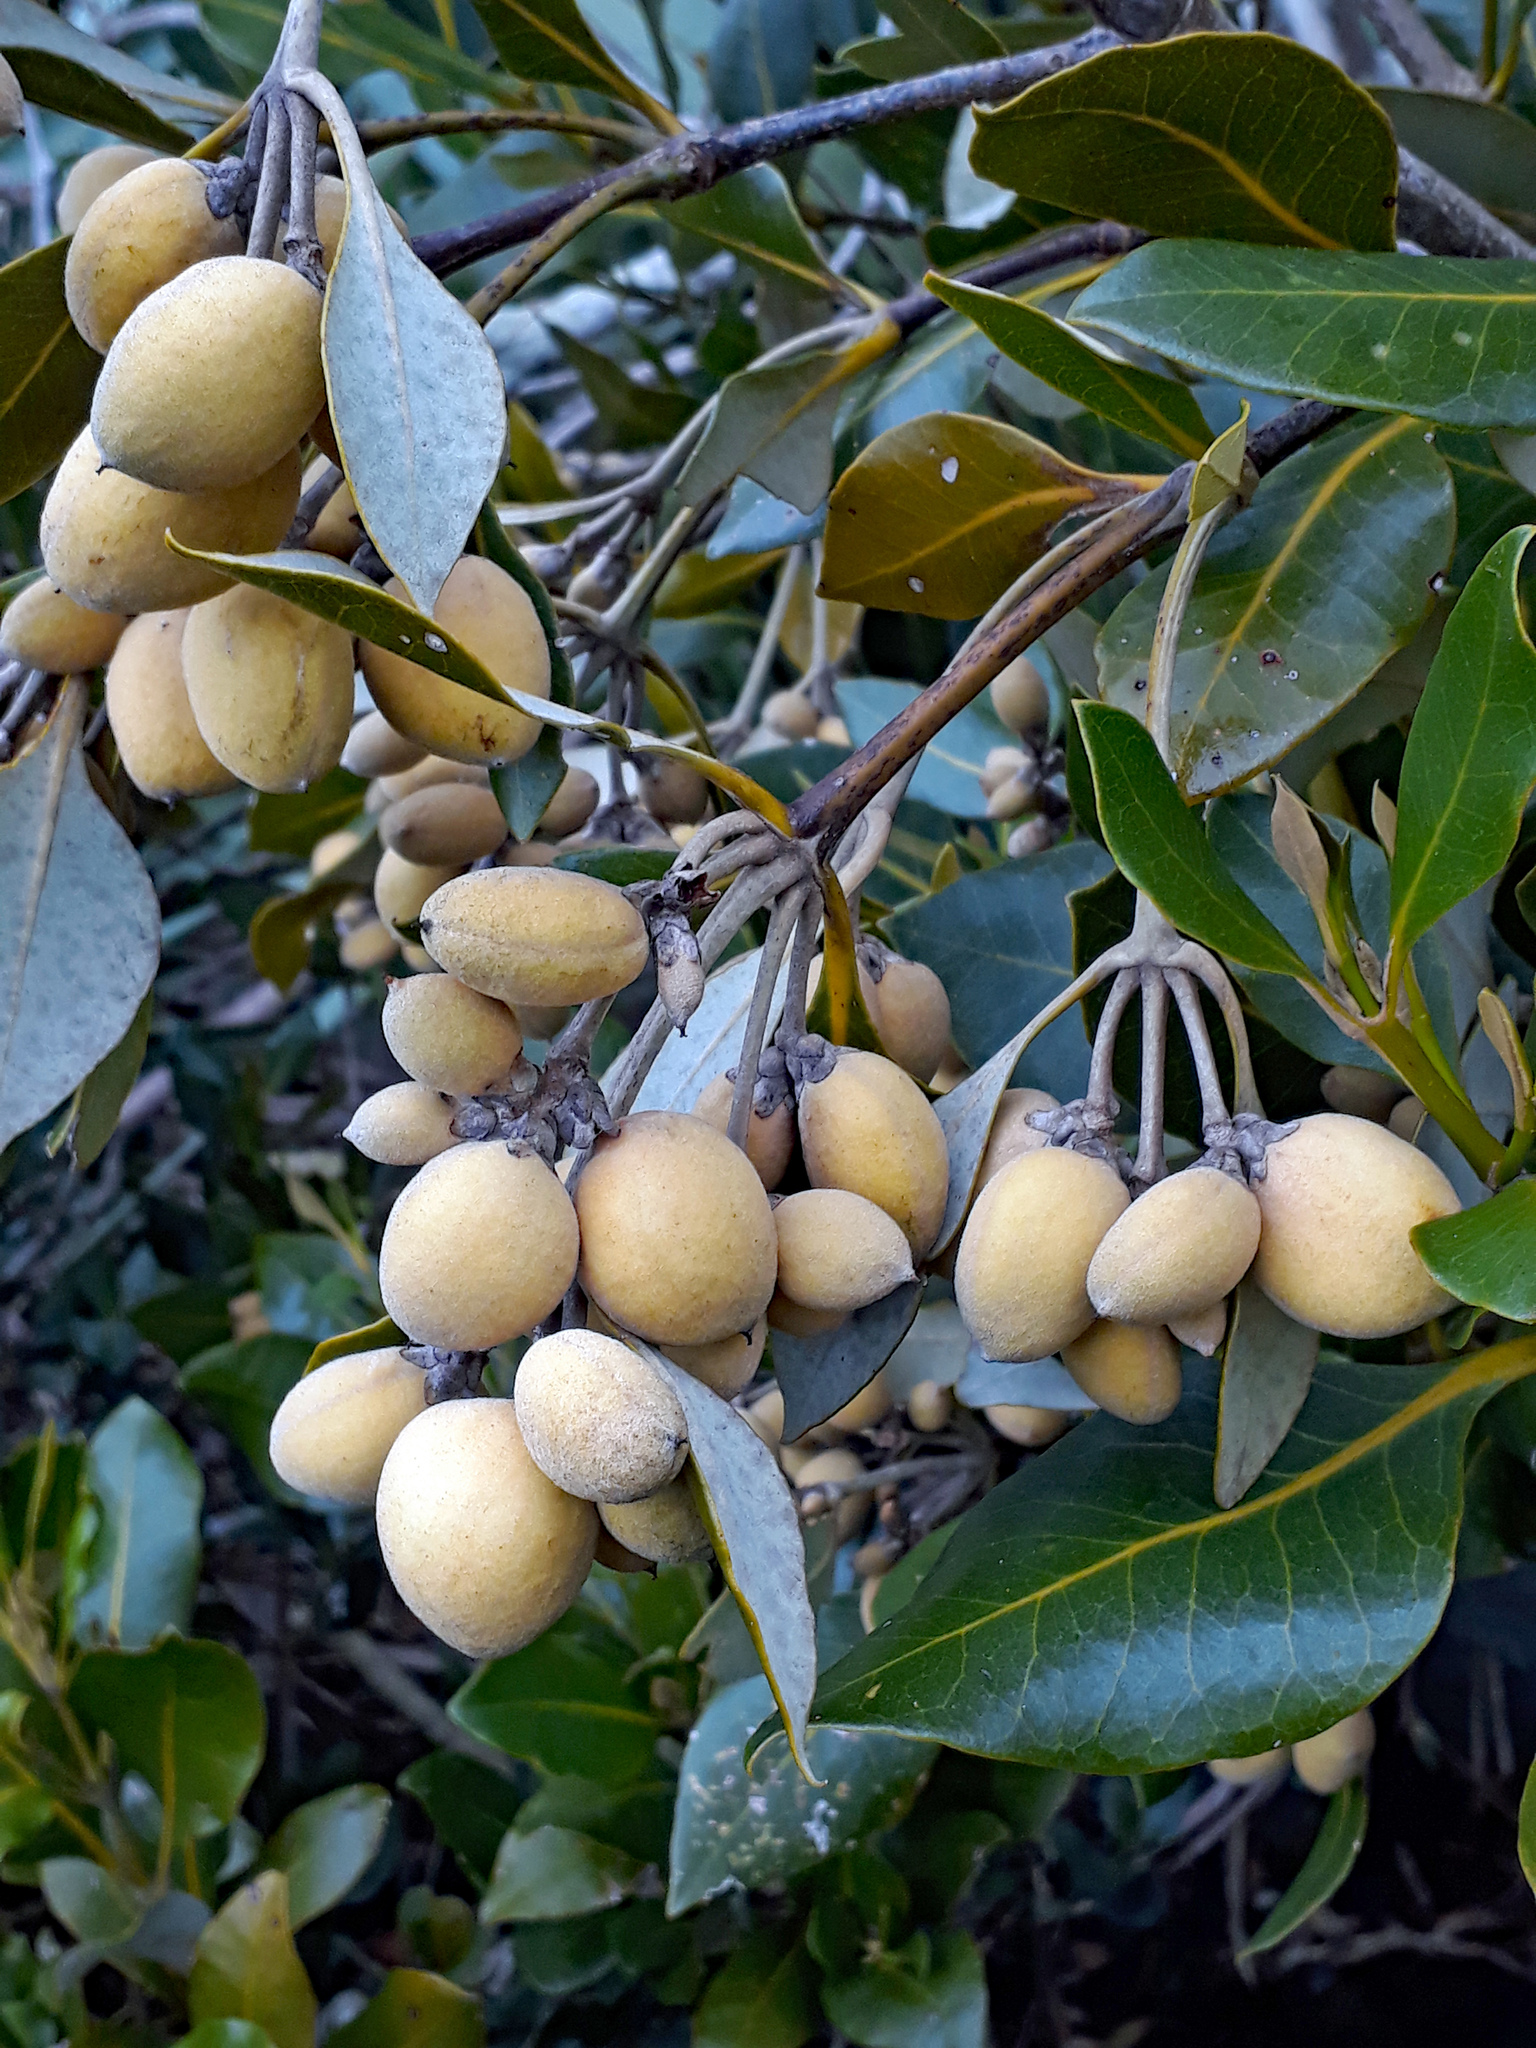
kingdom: Plantae
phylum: Tracheophyta
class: Magnoliopsida
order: Lamiales
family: Acanthaceae
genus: Avicennia
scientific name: Avicennia marina
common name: Gray mangrove
